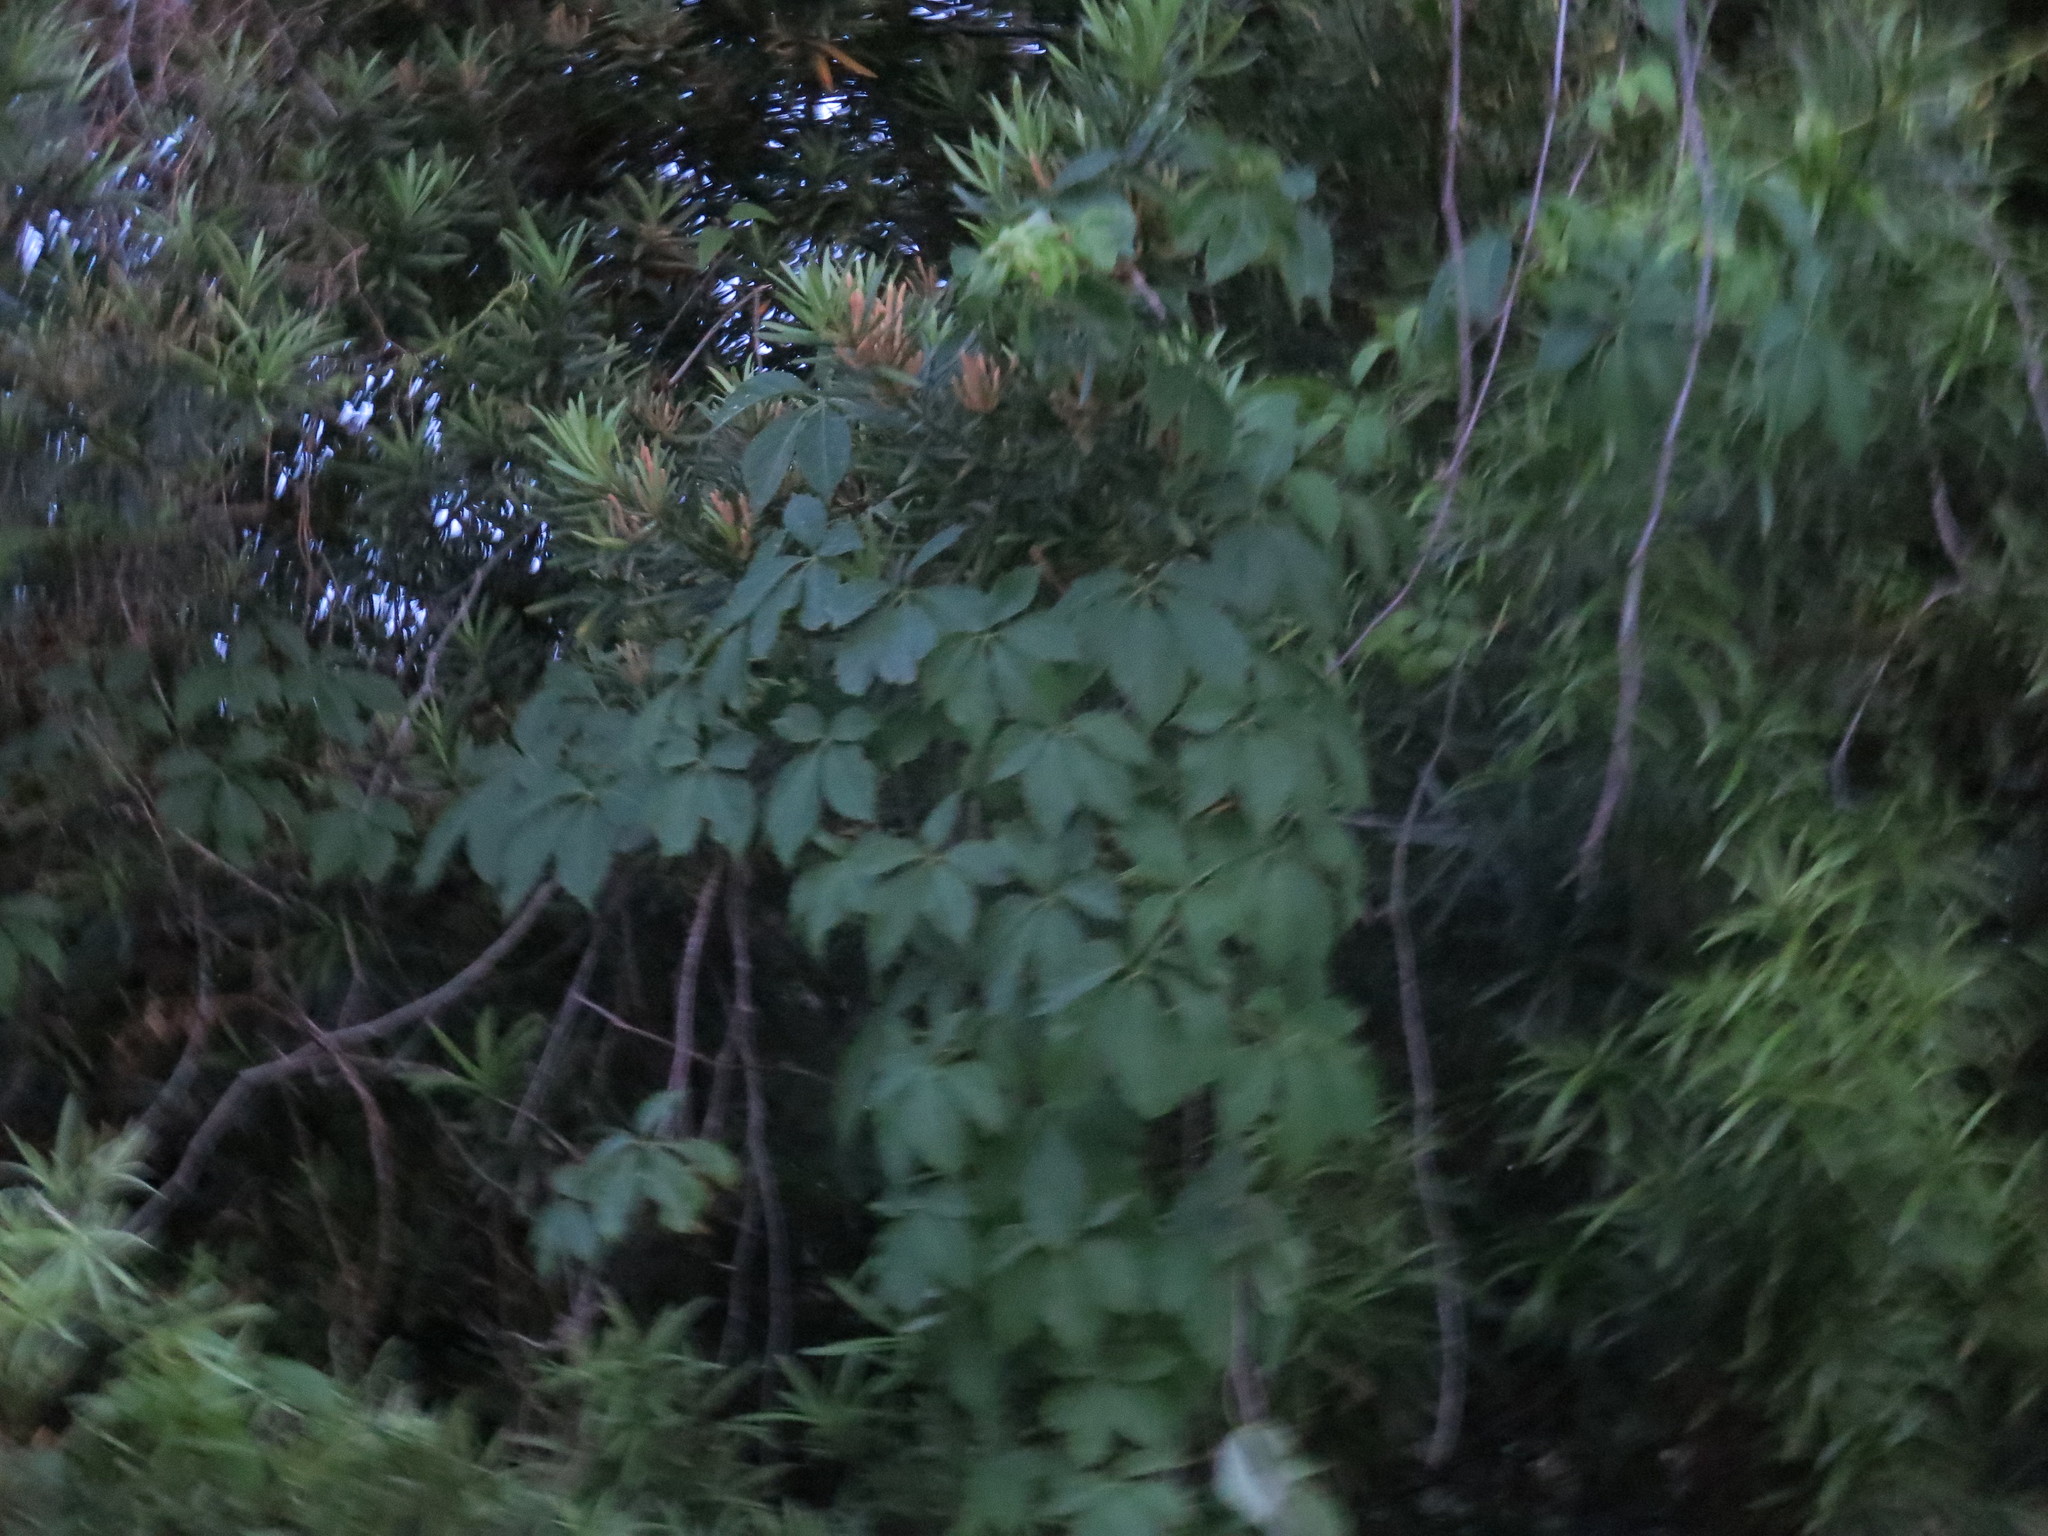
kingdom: Plantae
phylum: Tracheophyta
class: Magnoliopsida
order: Vitales
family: Vitaceae
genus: Parthenocissus
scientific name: Parthenocissus quinquefolia
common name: Virginia-creeper
